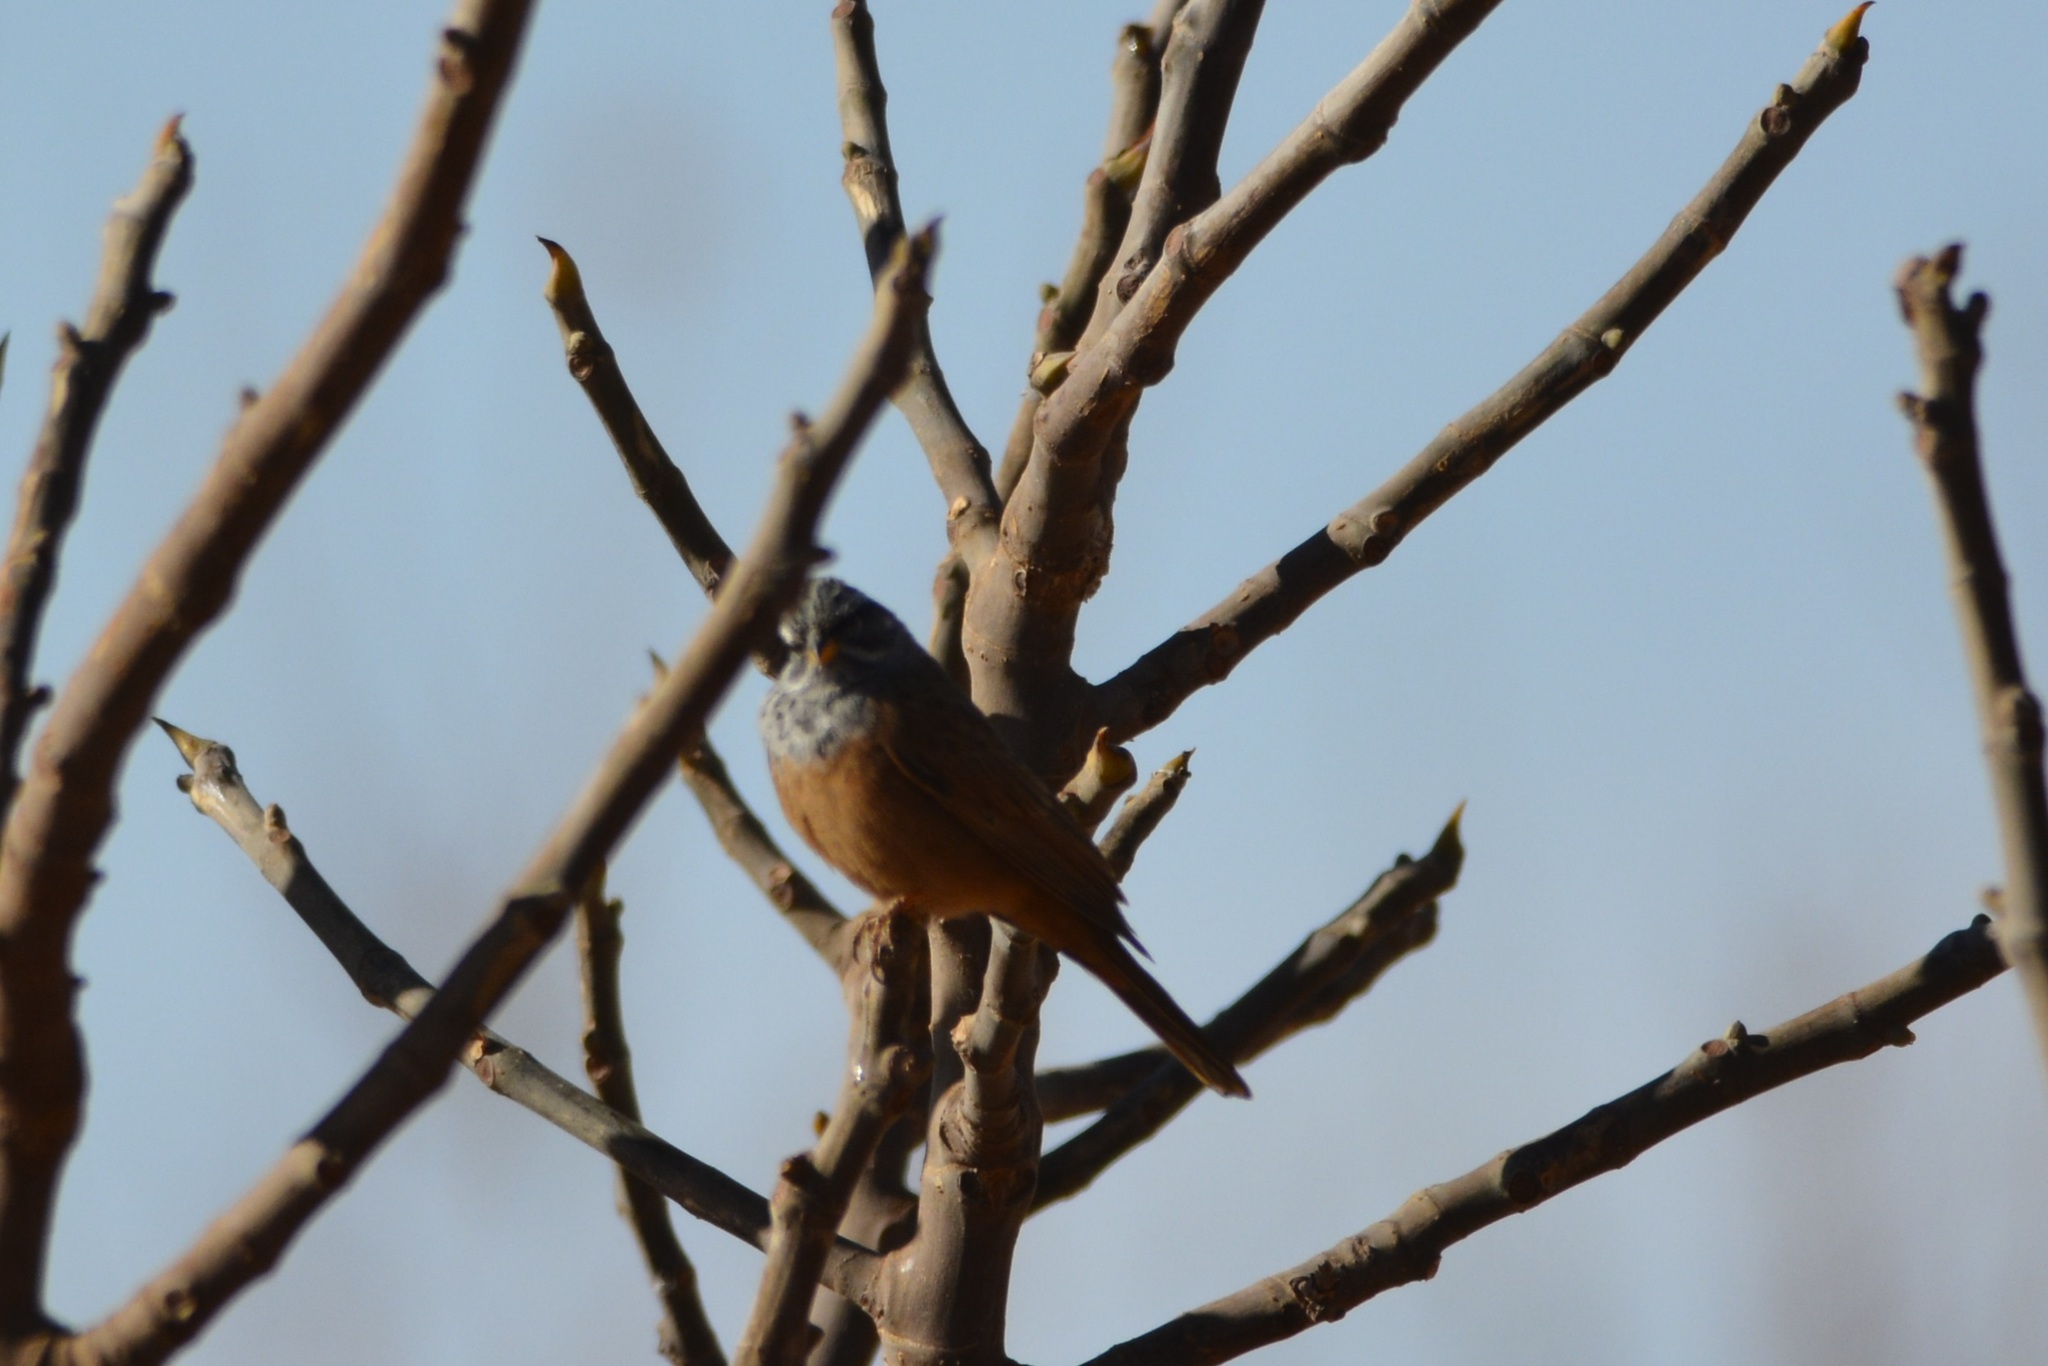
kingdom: Animalia
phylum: Chordata
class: Aves
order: Passeriformes
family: Emberizidae
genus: Emberiza
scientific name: Emberiza sahari
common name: House bunting
